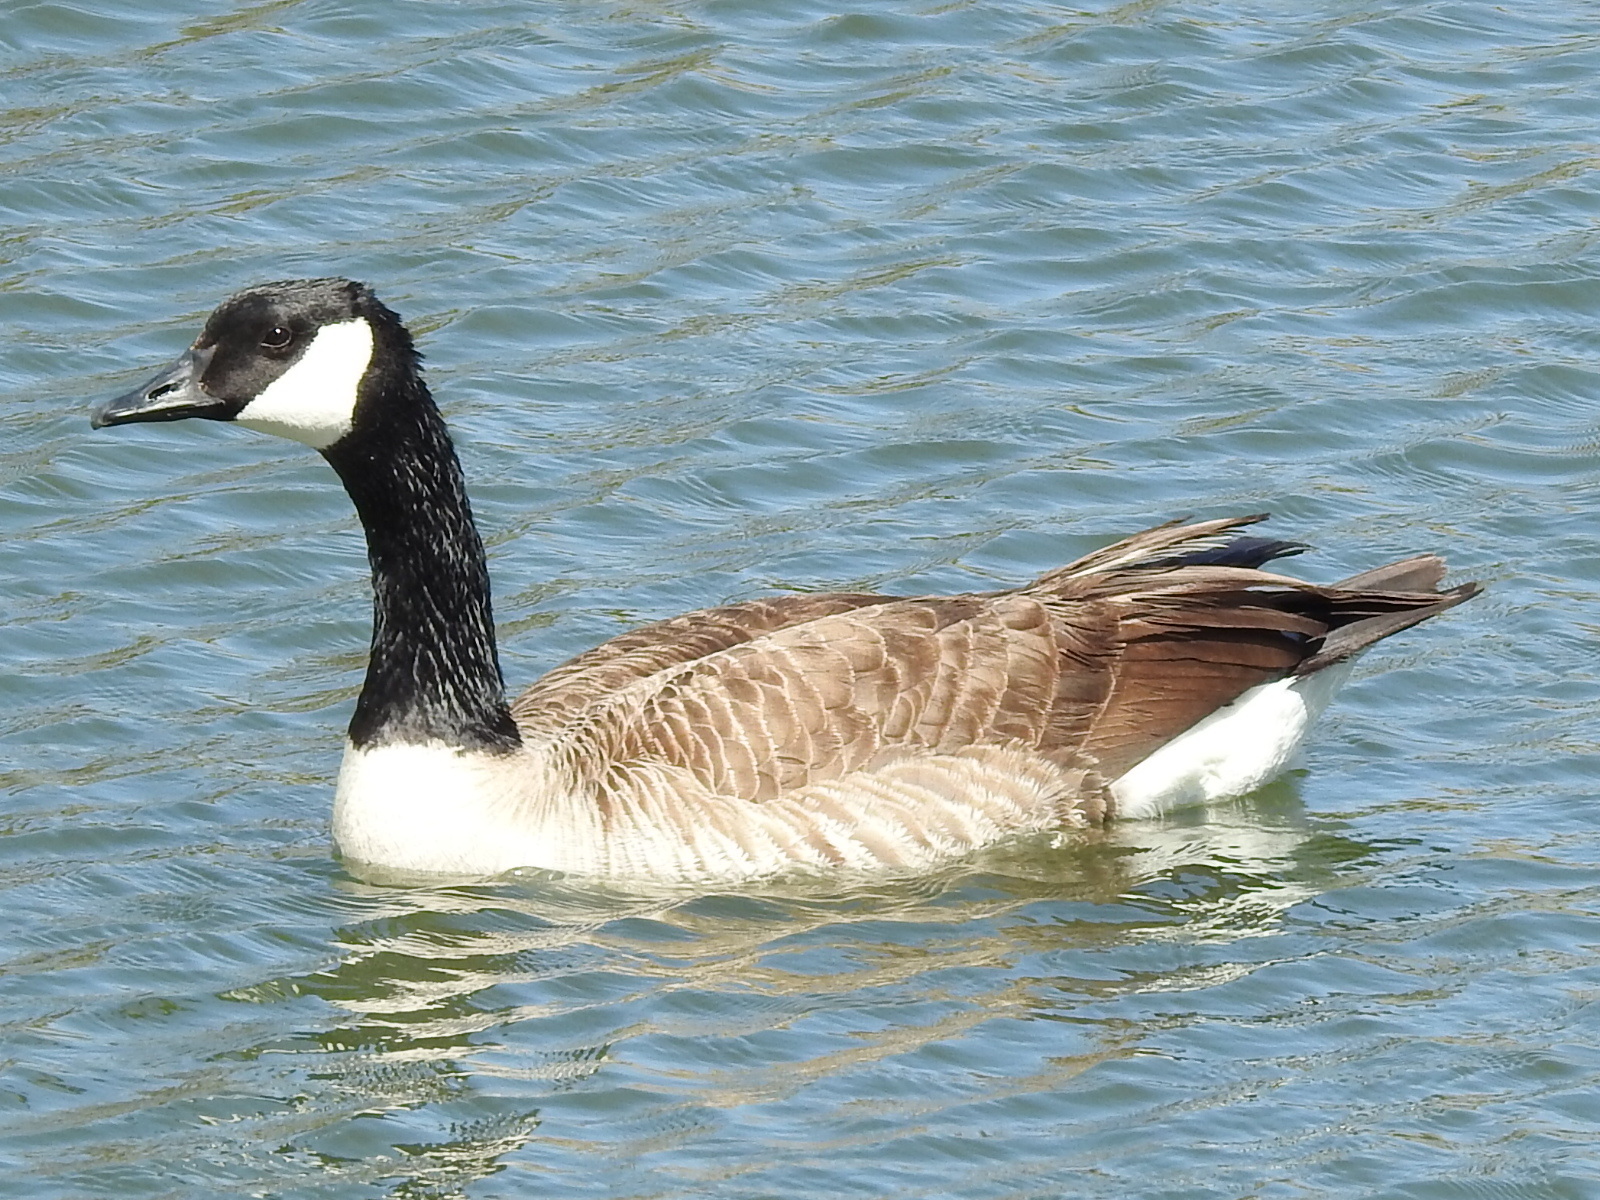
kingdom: Animalia
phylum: Chordata
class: Aves
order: Anseriformes
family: Anatidae
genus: Branta
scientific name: Branta canadensis
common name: Canada goose
